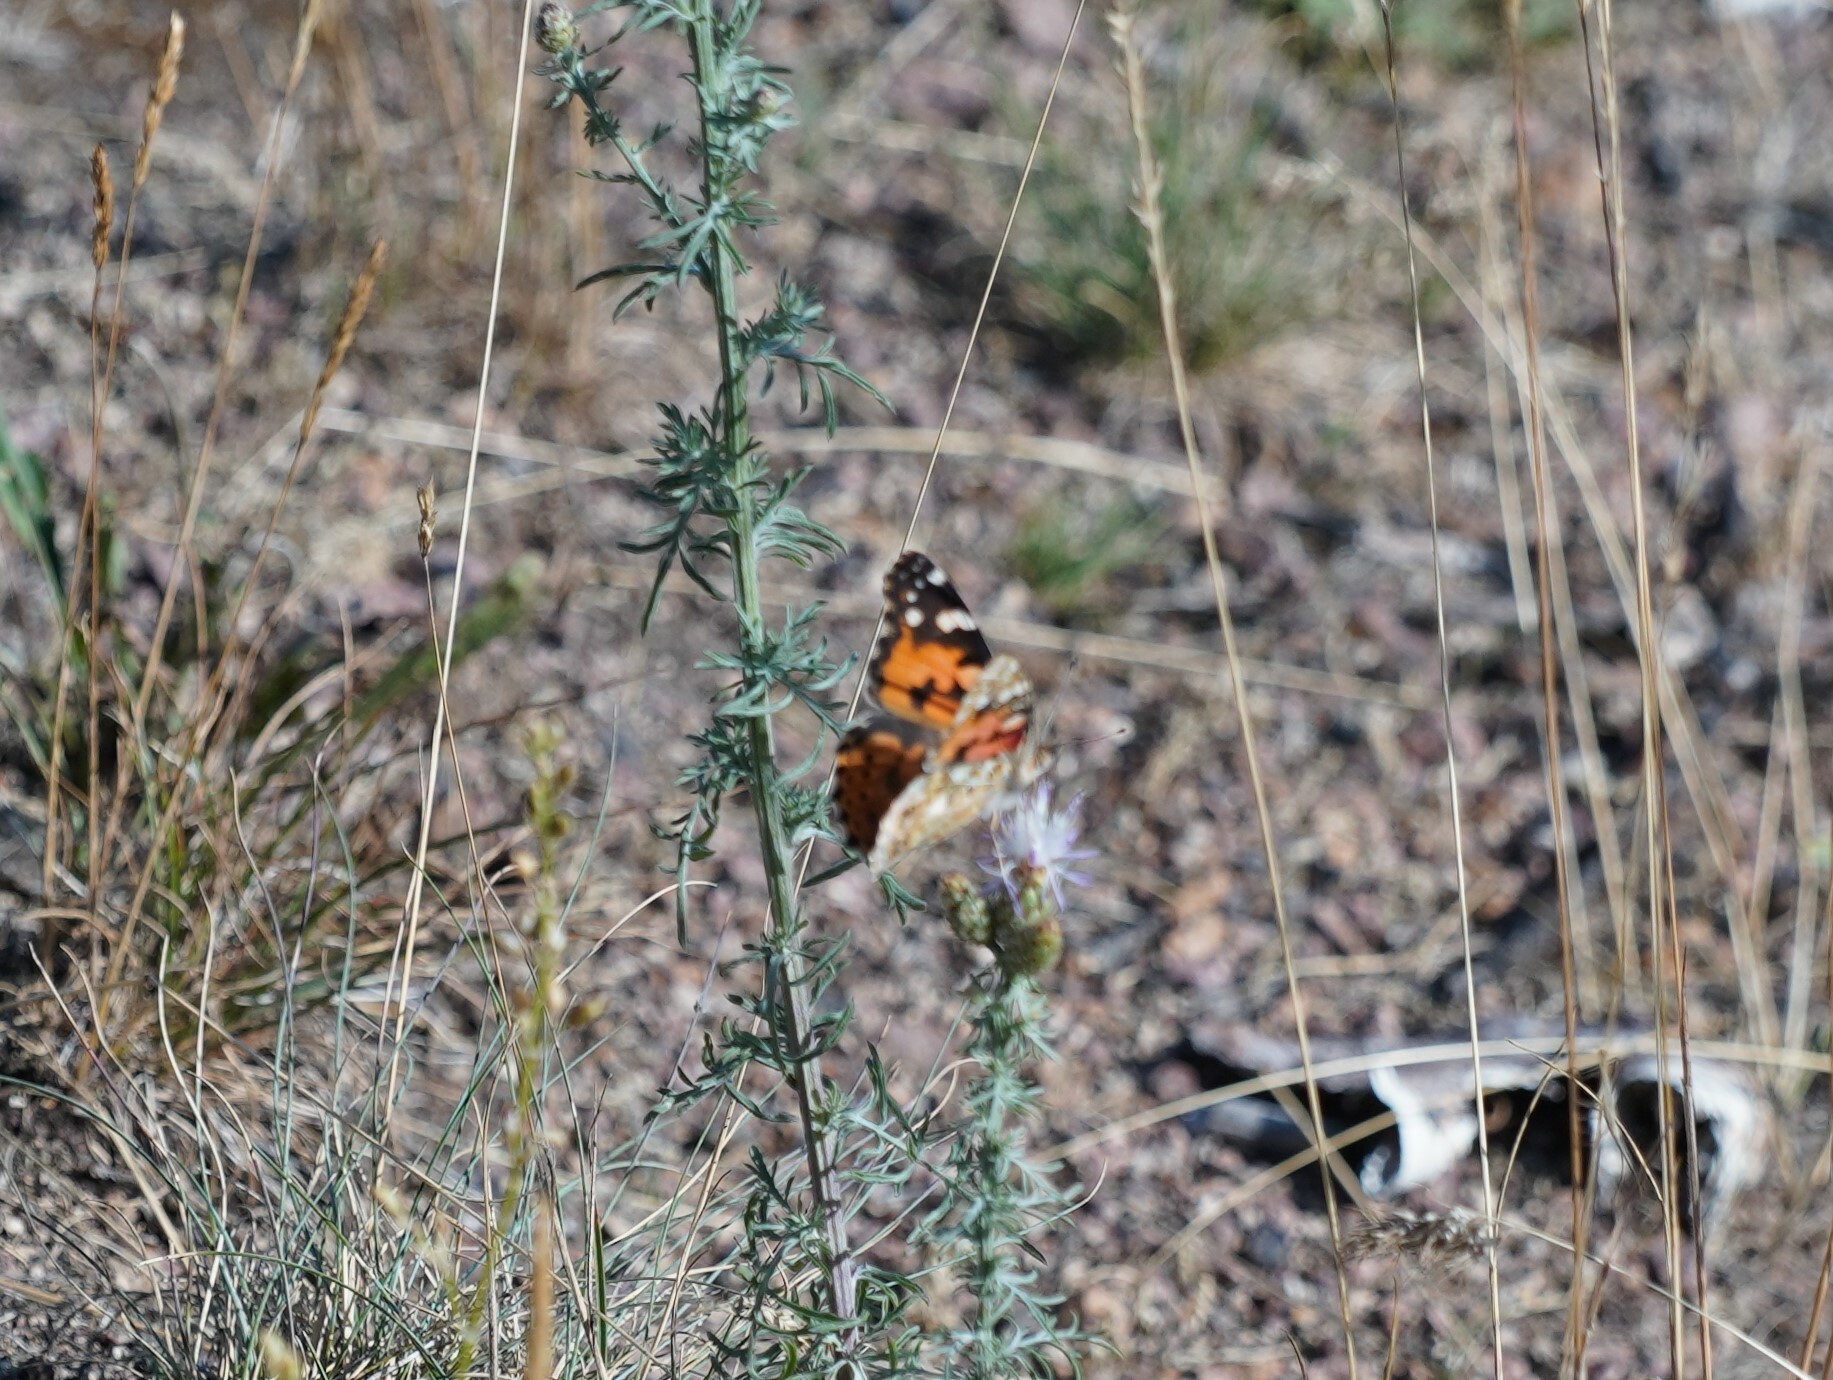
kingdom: Animalia
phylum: Arthropoda
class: Insecta
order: Lepidoptera
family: Nymphalidae
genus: Vanessa
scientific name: Vanessa cardui
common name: Painted lady
